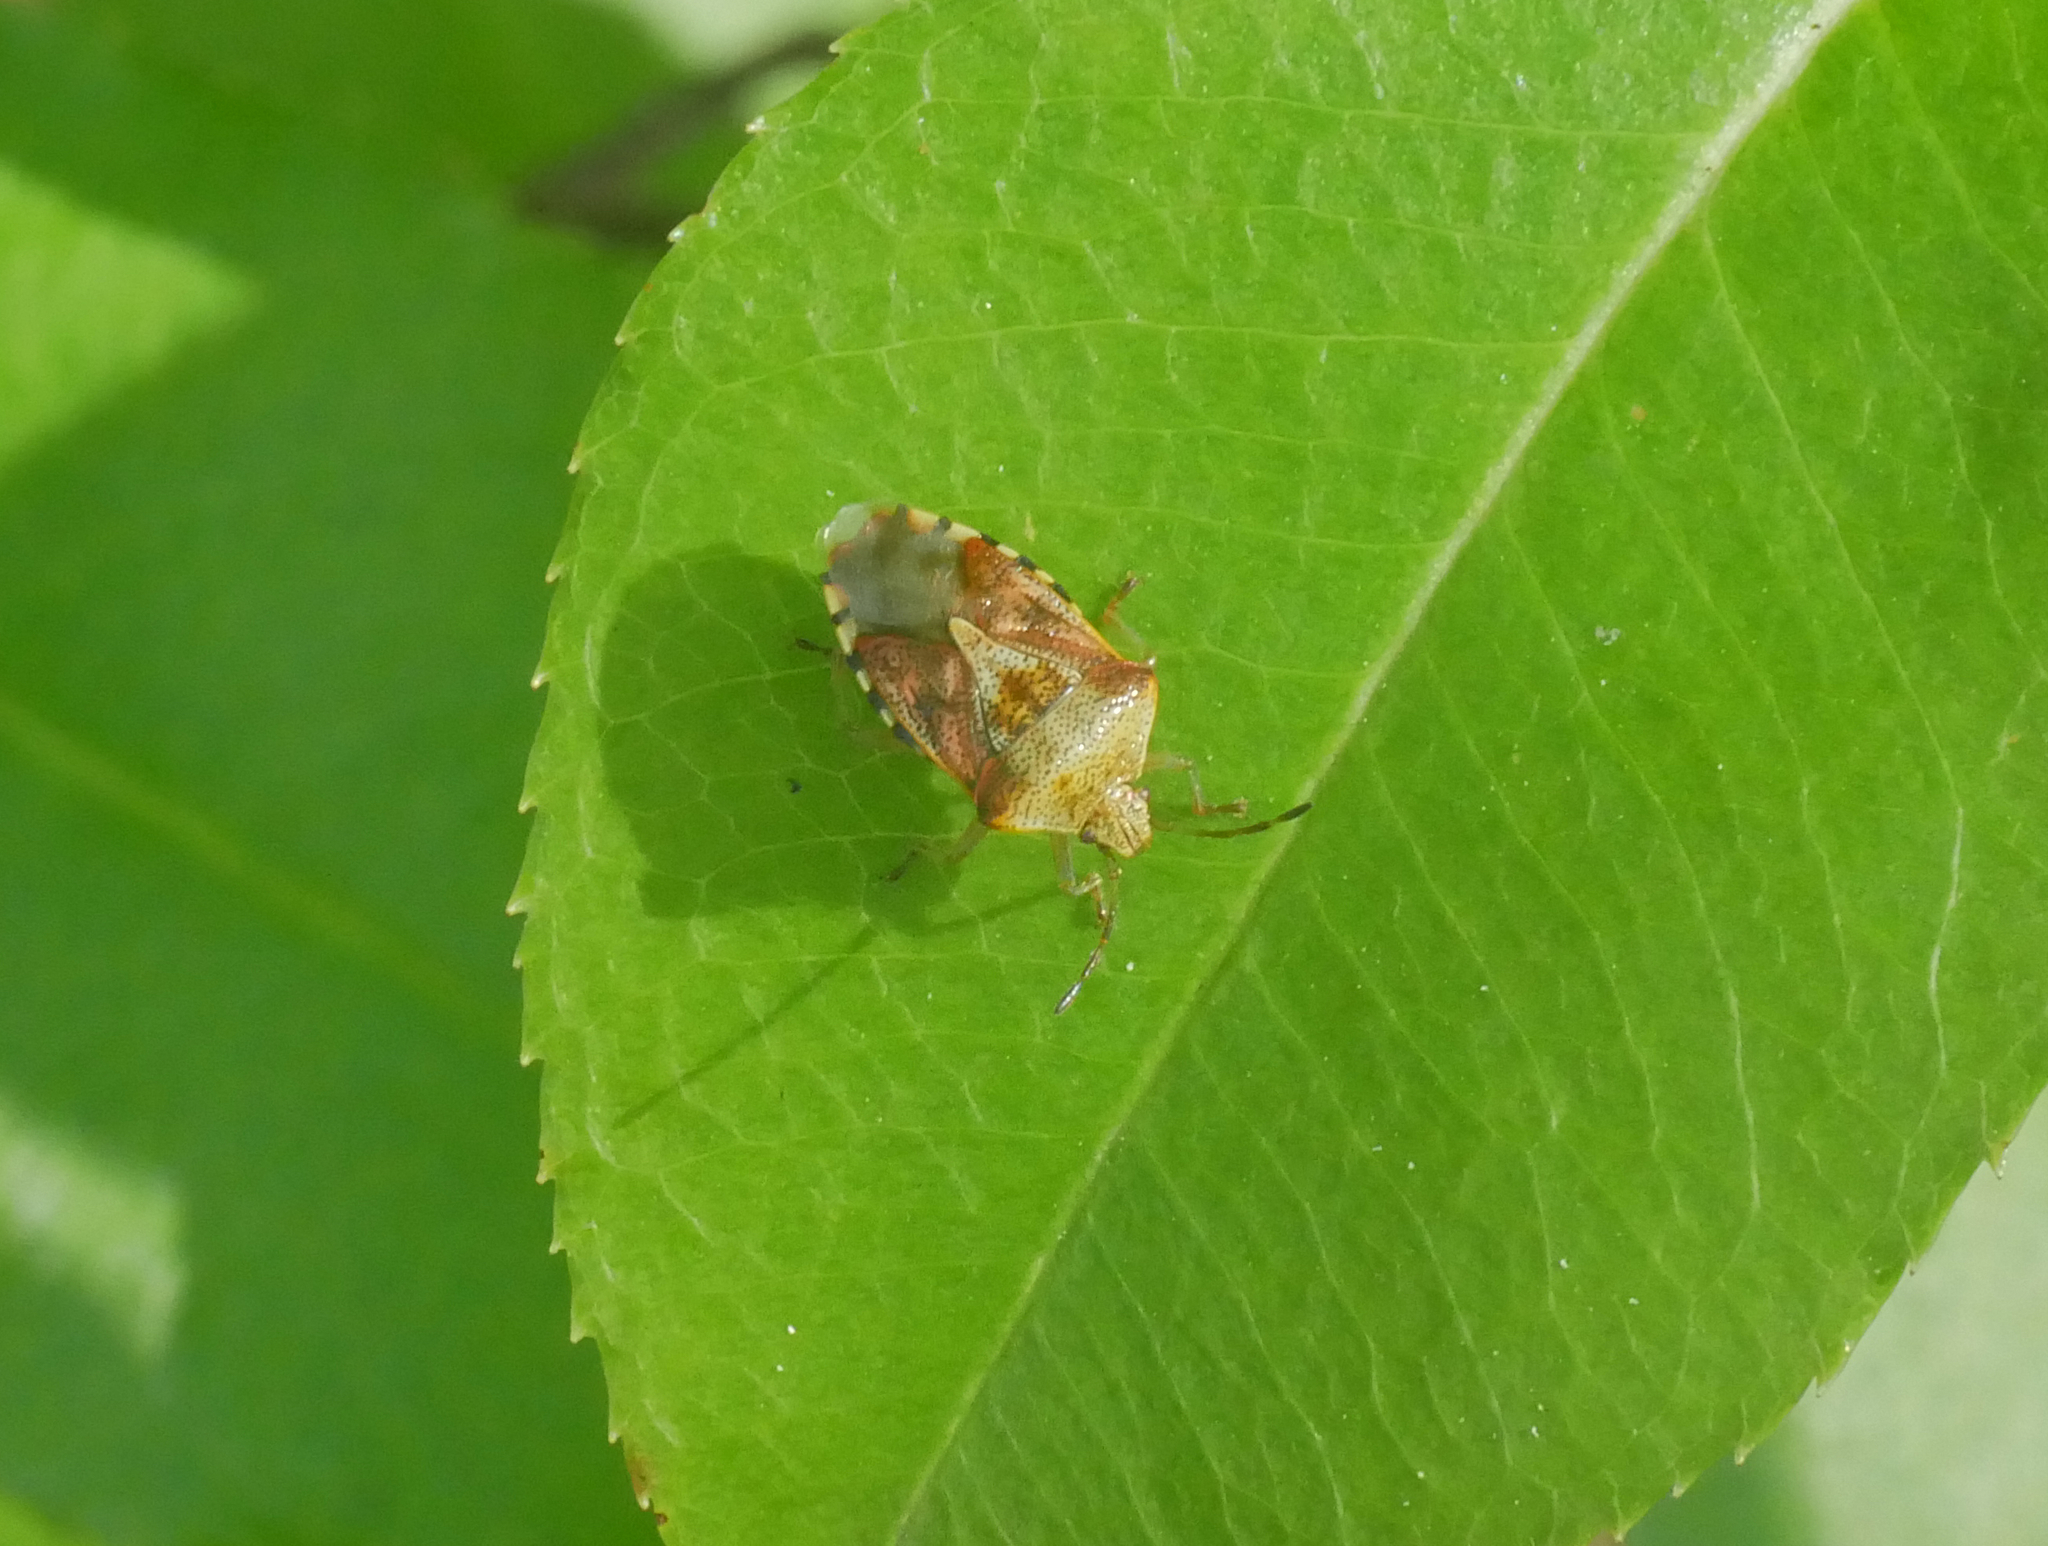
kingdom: Animalia
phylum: Arthropoda
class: Insecta
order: Hemiptera
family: Acanthosomatidae
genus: Elasmucha
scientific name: Elasmucha grisea
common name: Parent bug
